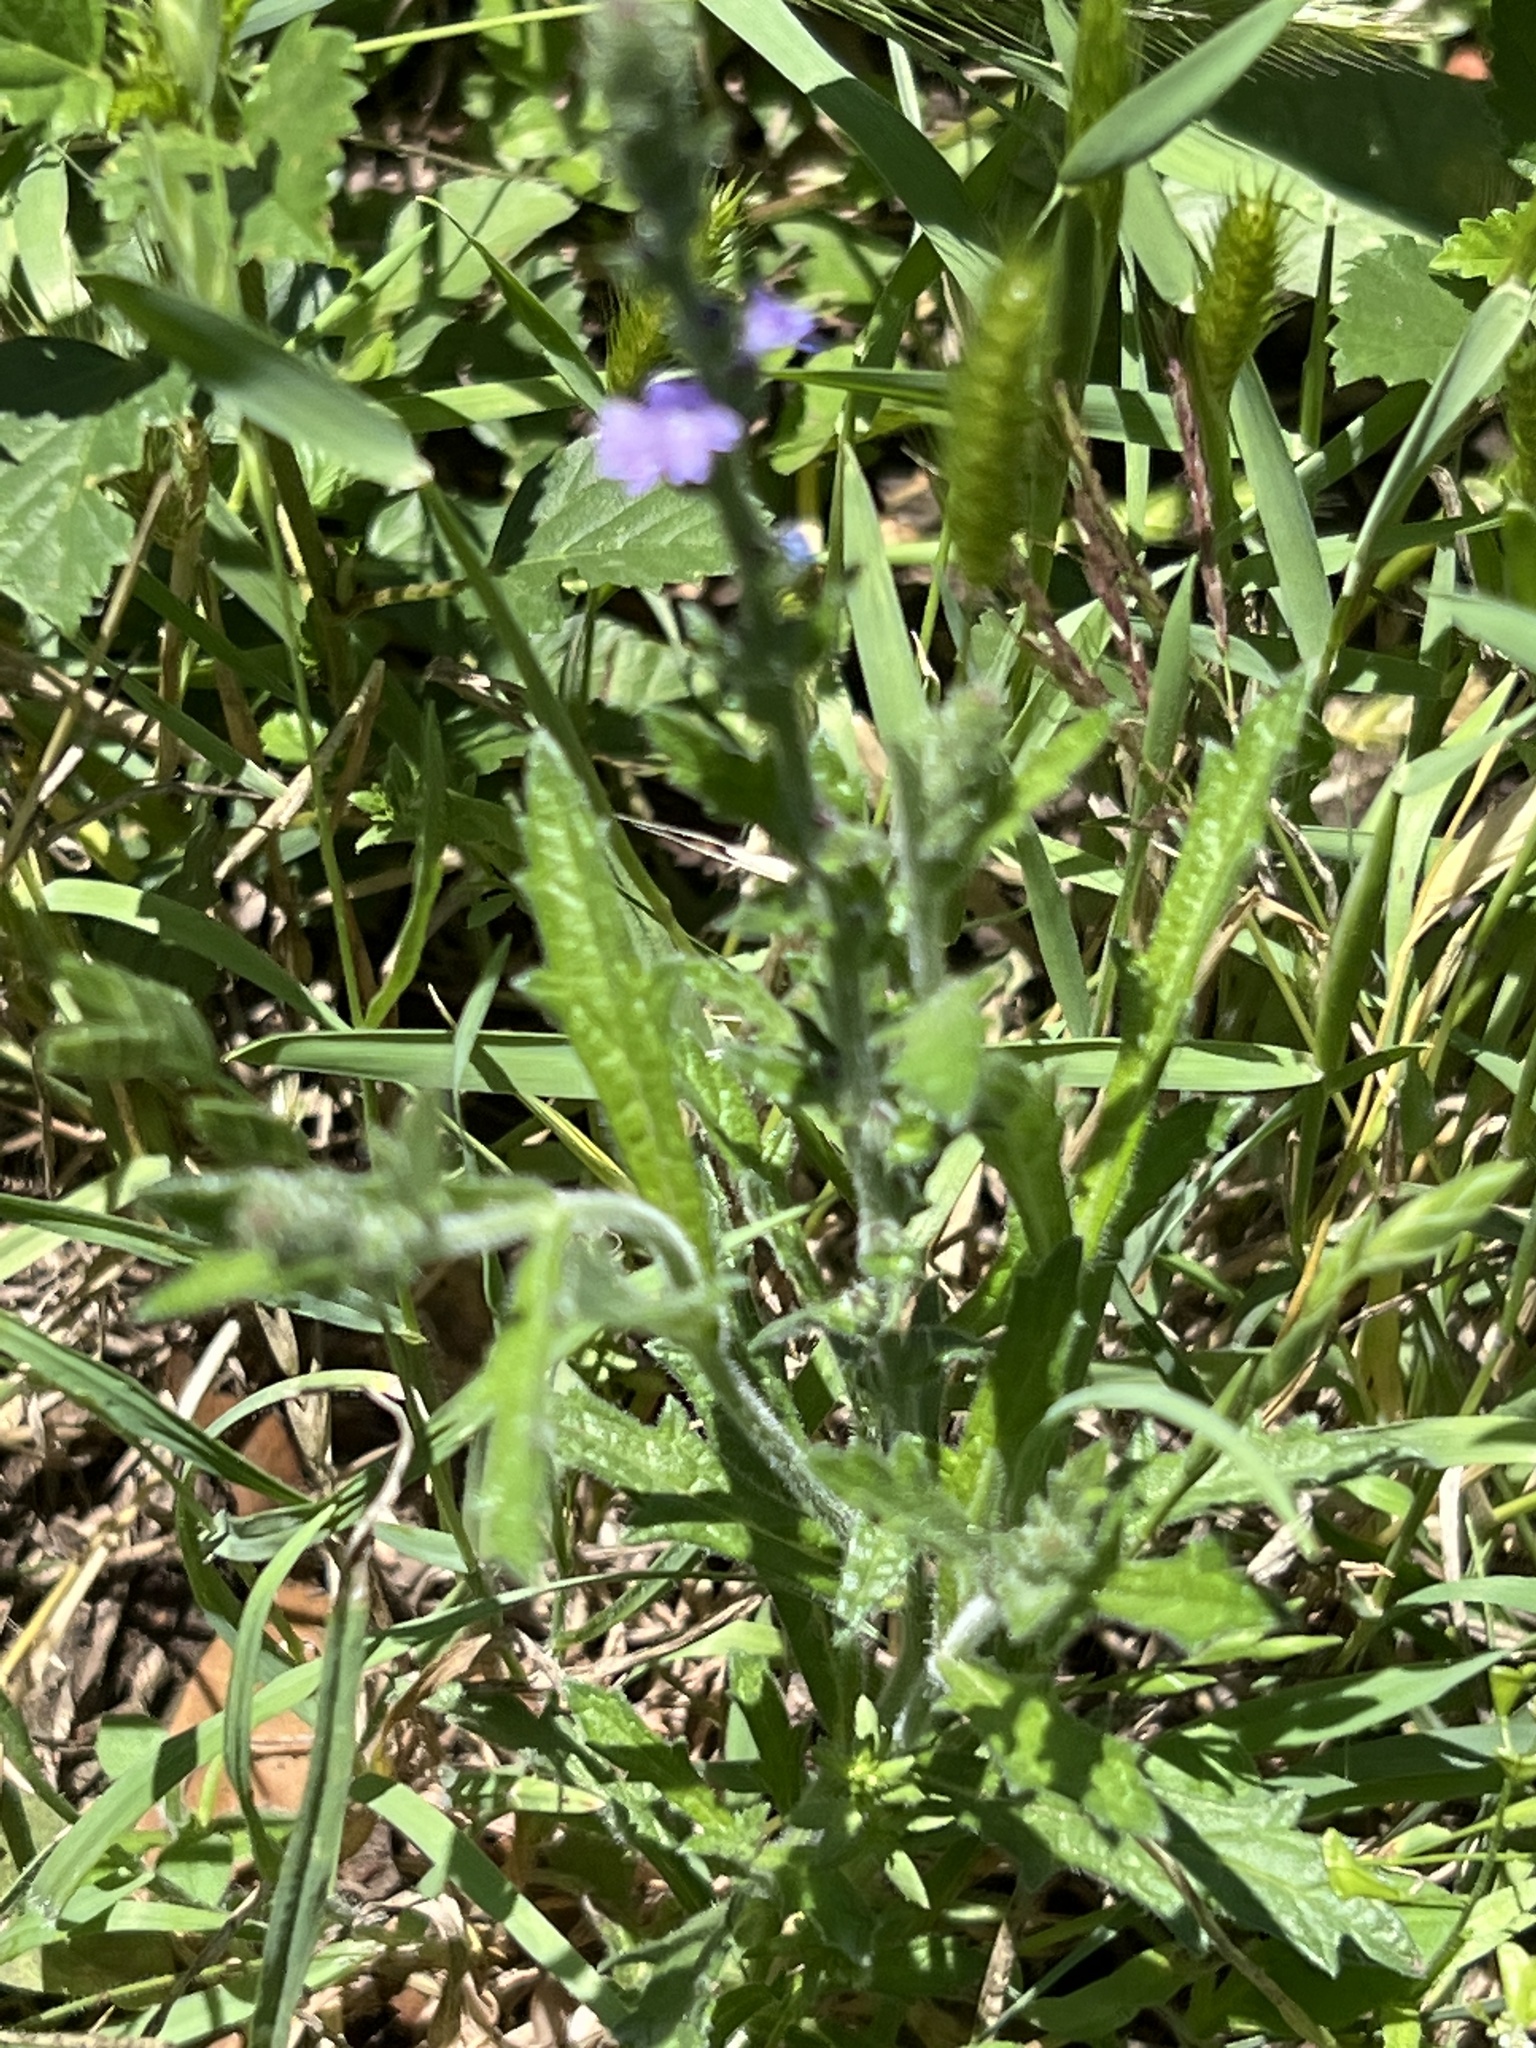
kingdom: Plantae
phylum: Tracheophyta
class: Magnoliopsida
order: Lamiales
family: Verbenaceae
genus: Verbena
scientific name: Verbena canescens
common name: Gray vervain
